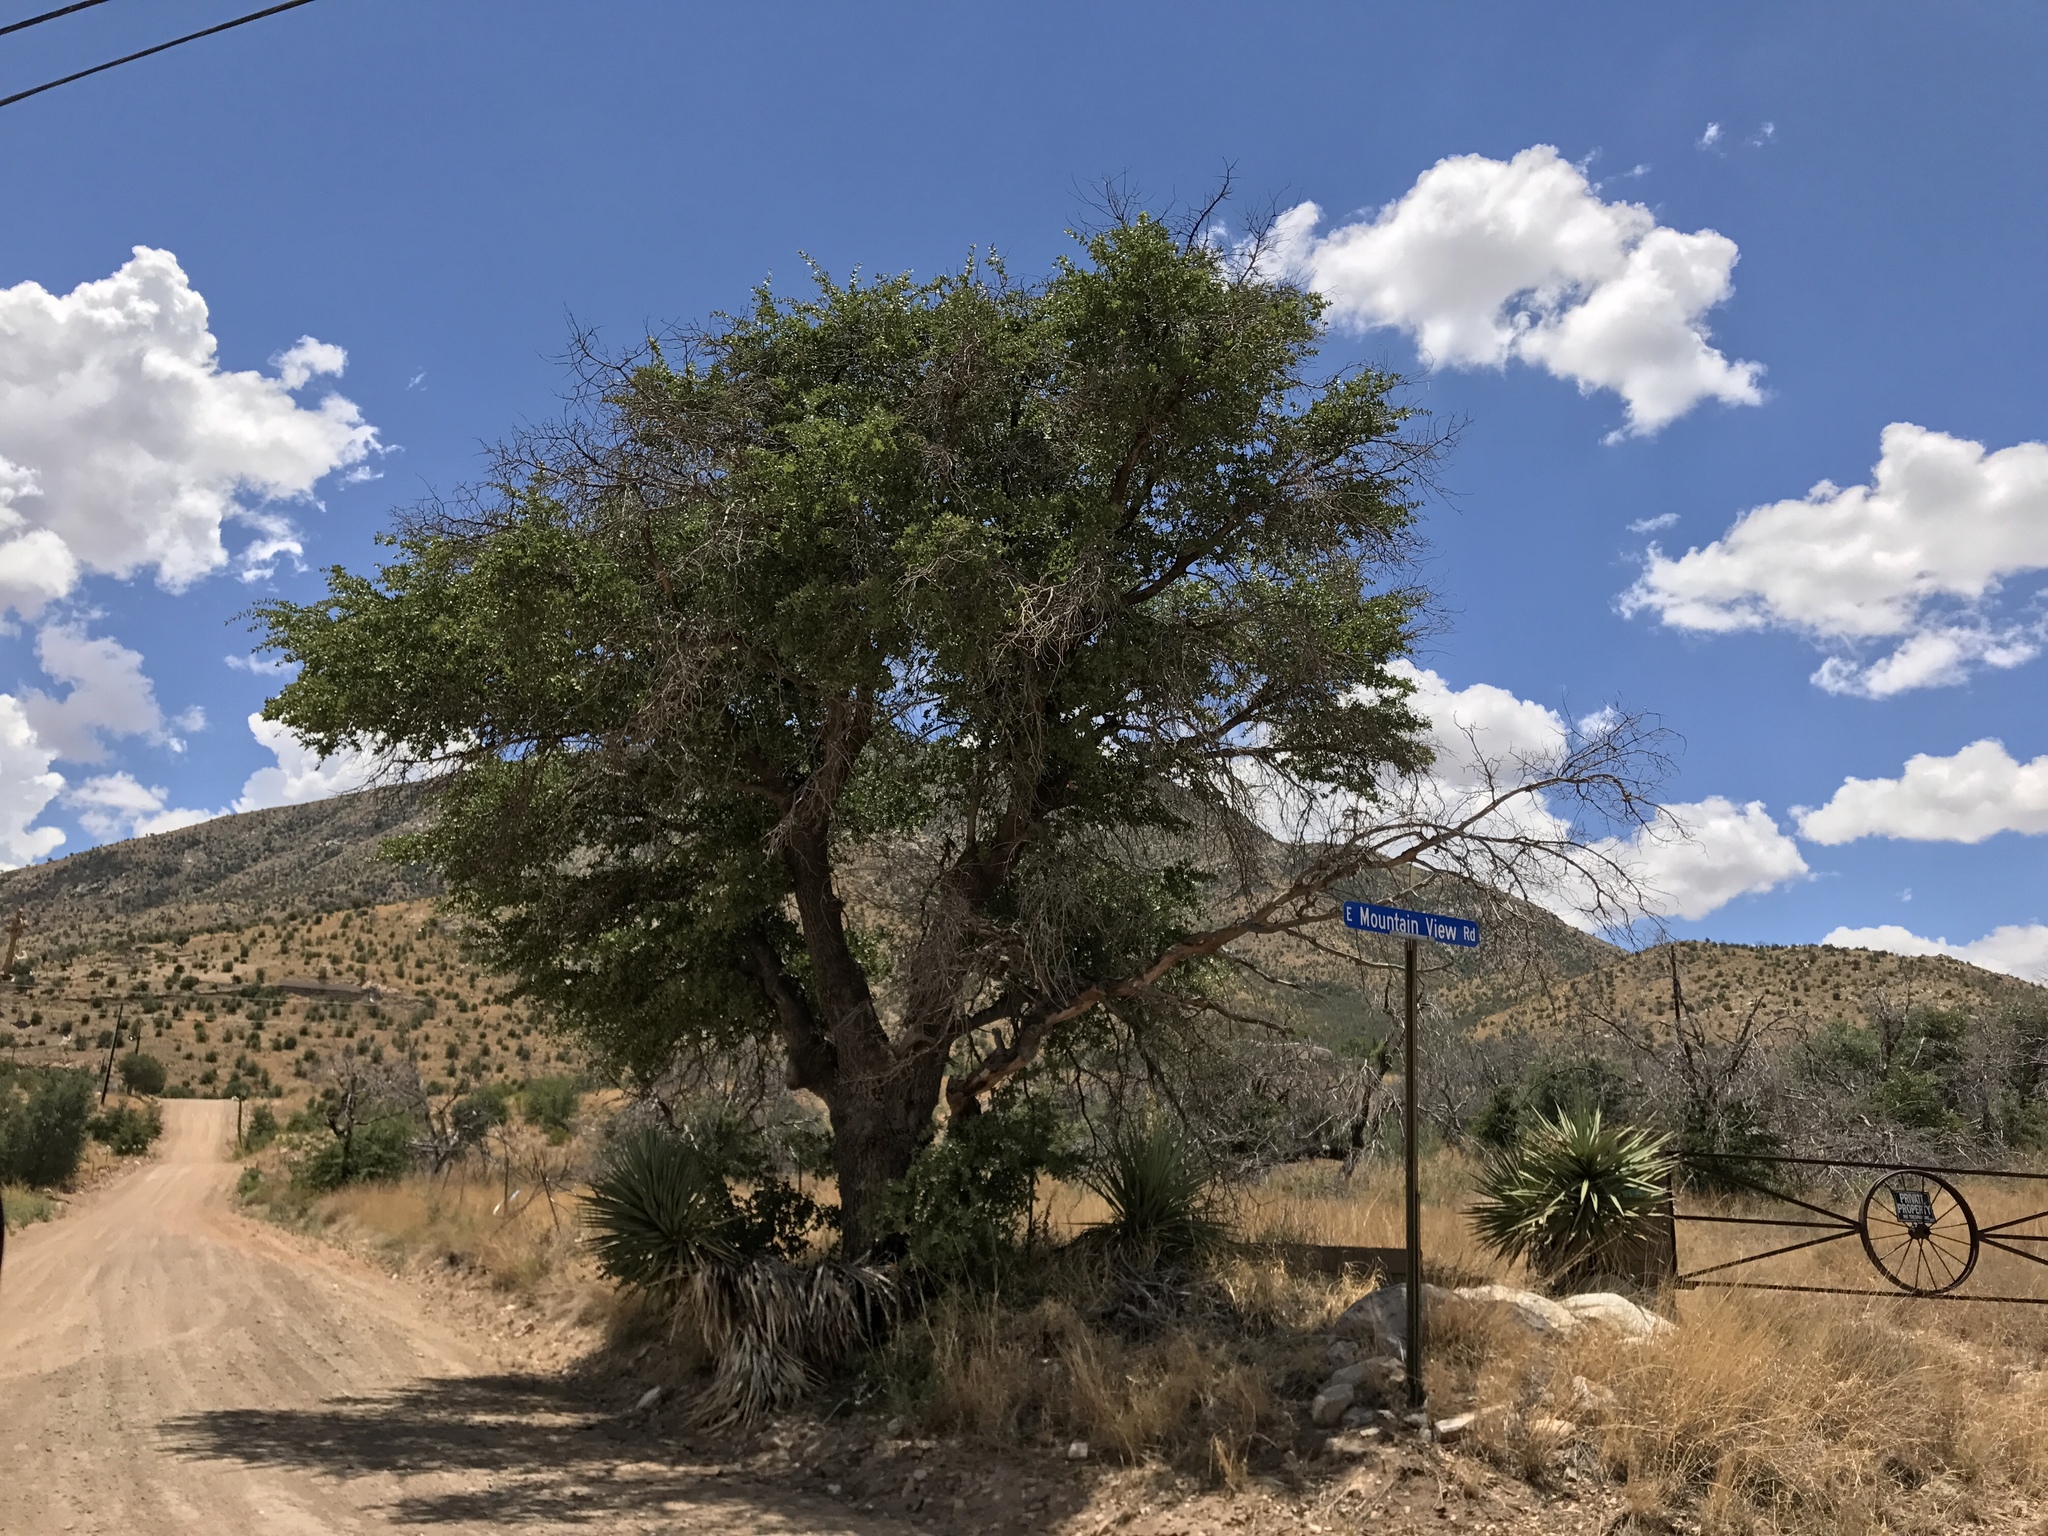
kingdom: Plantae
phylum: Tracheophyta
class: Magnoliopsida
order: Fagales
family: Fagaceae
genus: Quercus
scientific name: Quercus emoryi
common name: Emory oak
